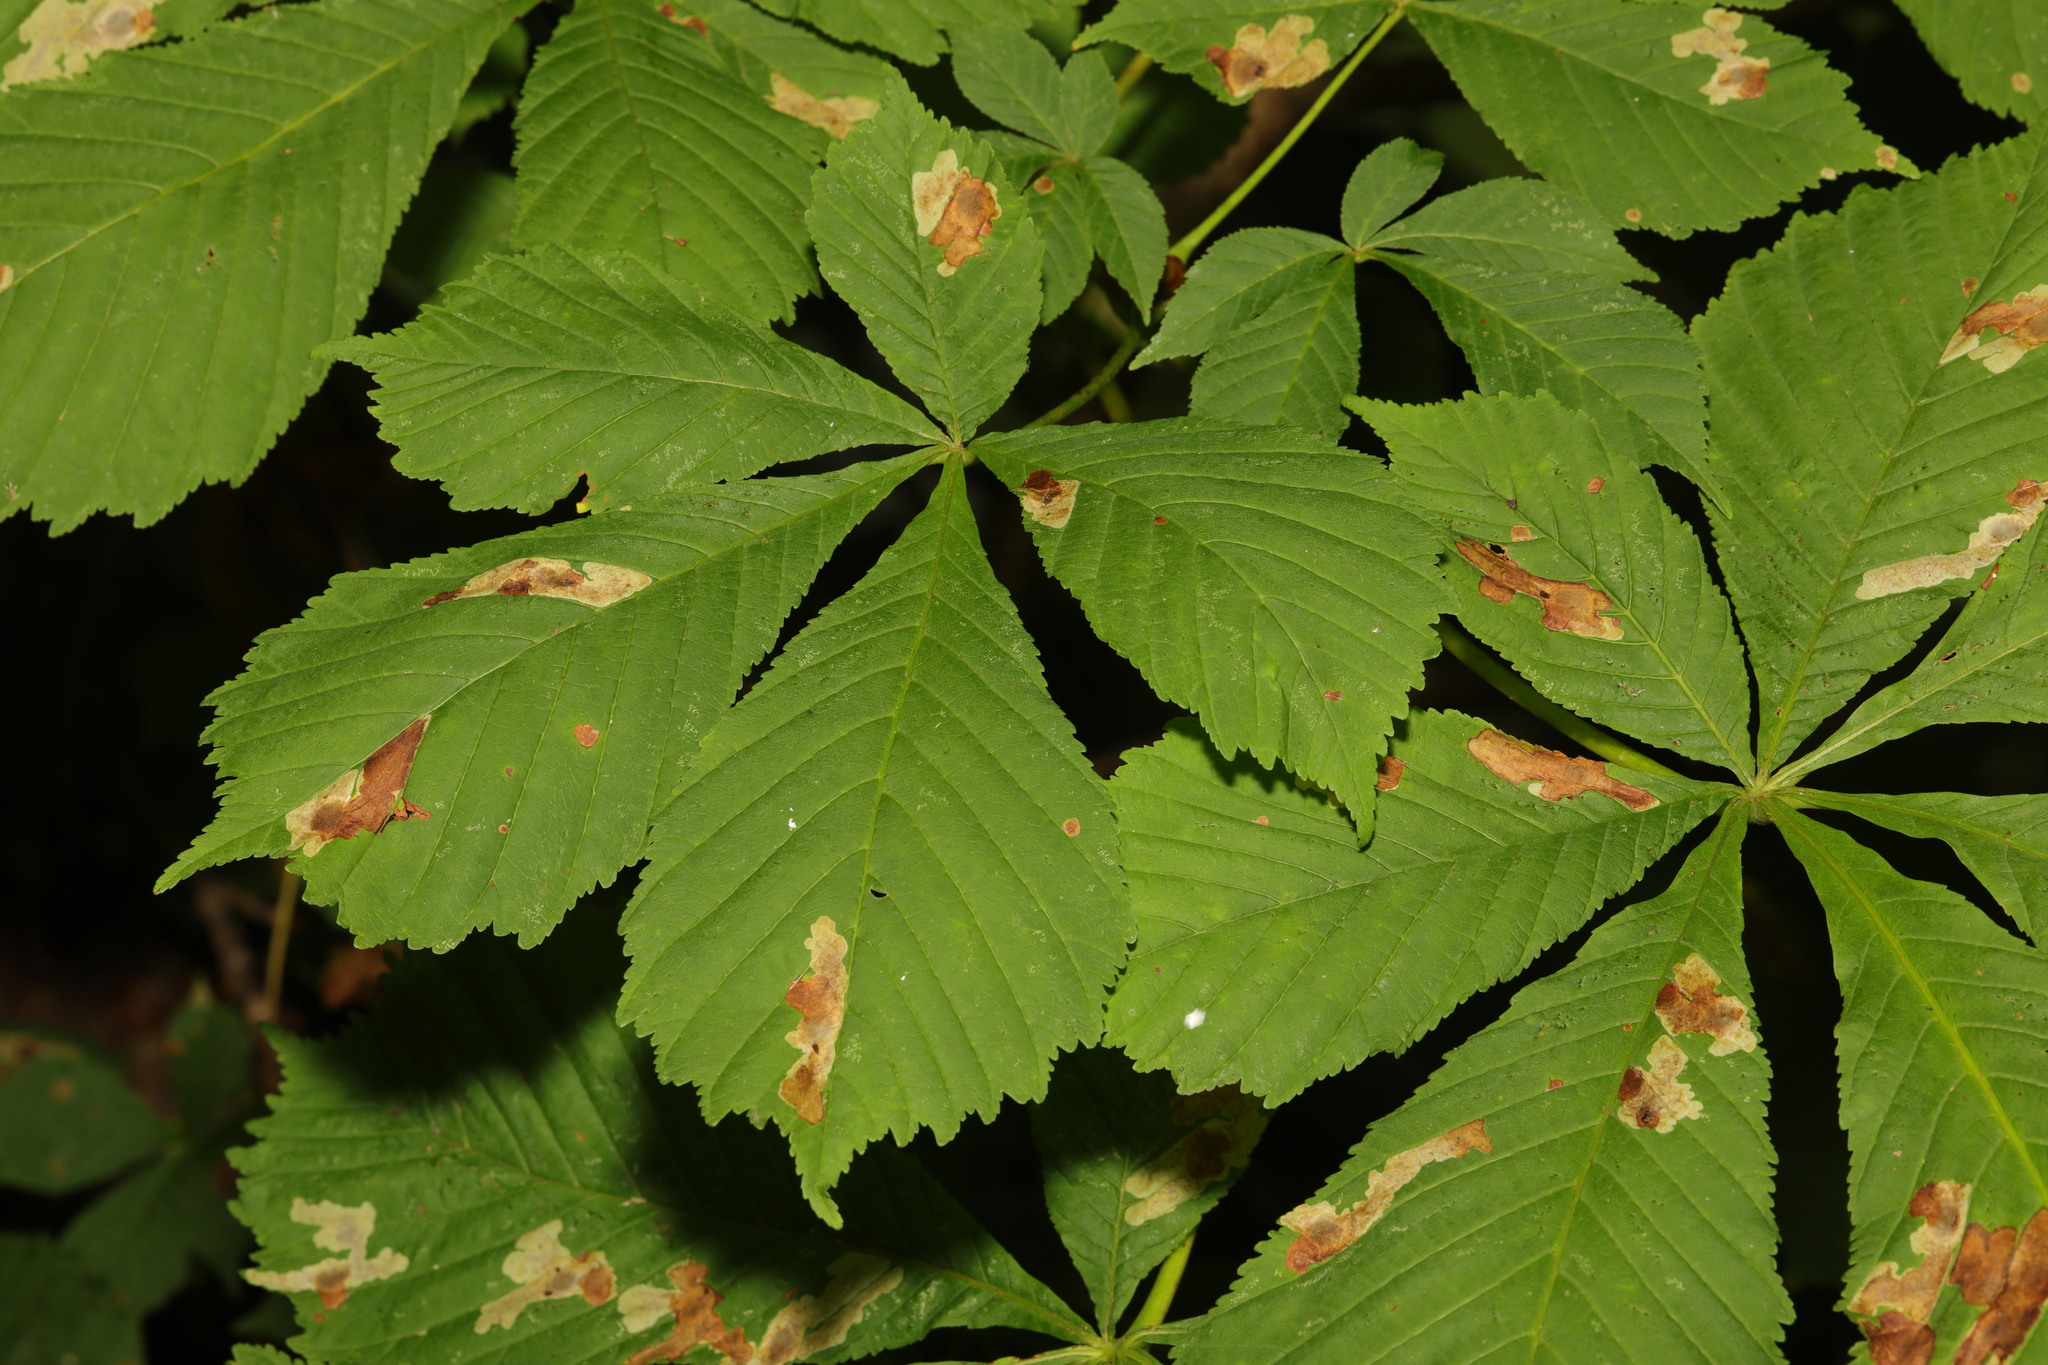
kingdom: Plantae
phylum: Tracheophyta
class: Magnoliopsida
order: Sapindales
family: Sapindaceae
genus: Aesculus
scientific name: Aesculus hippocastanum
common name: Horse-chestnut
